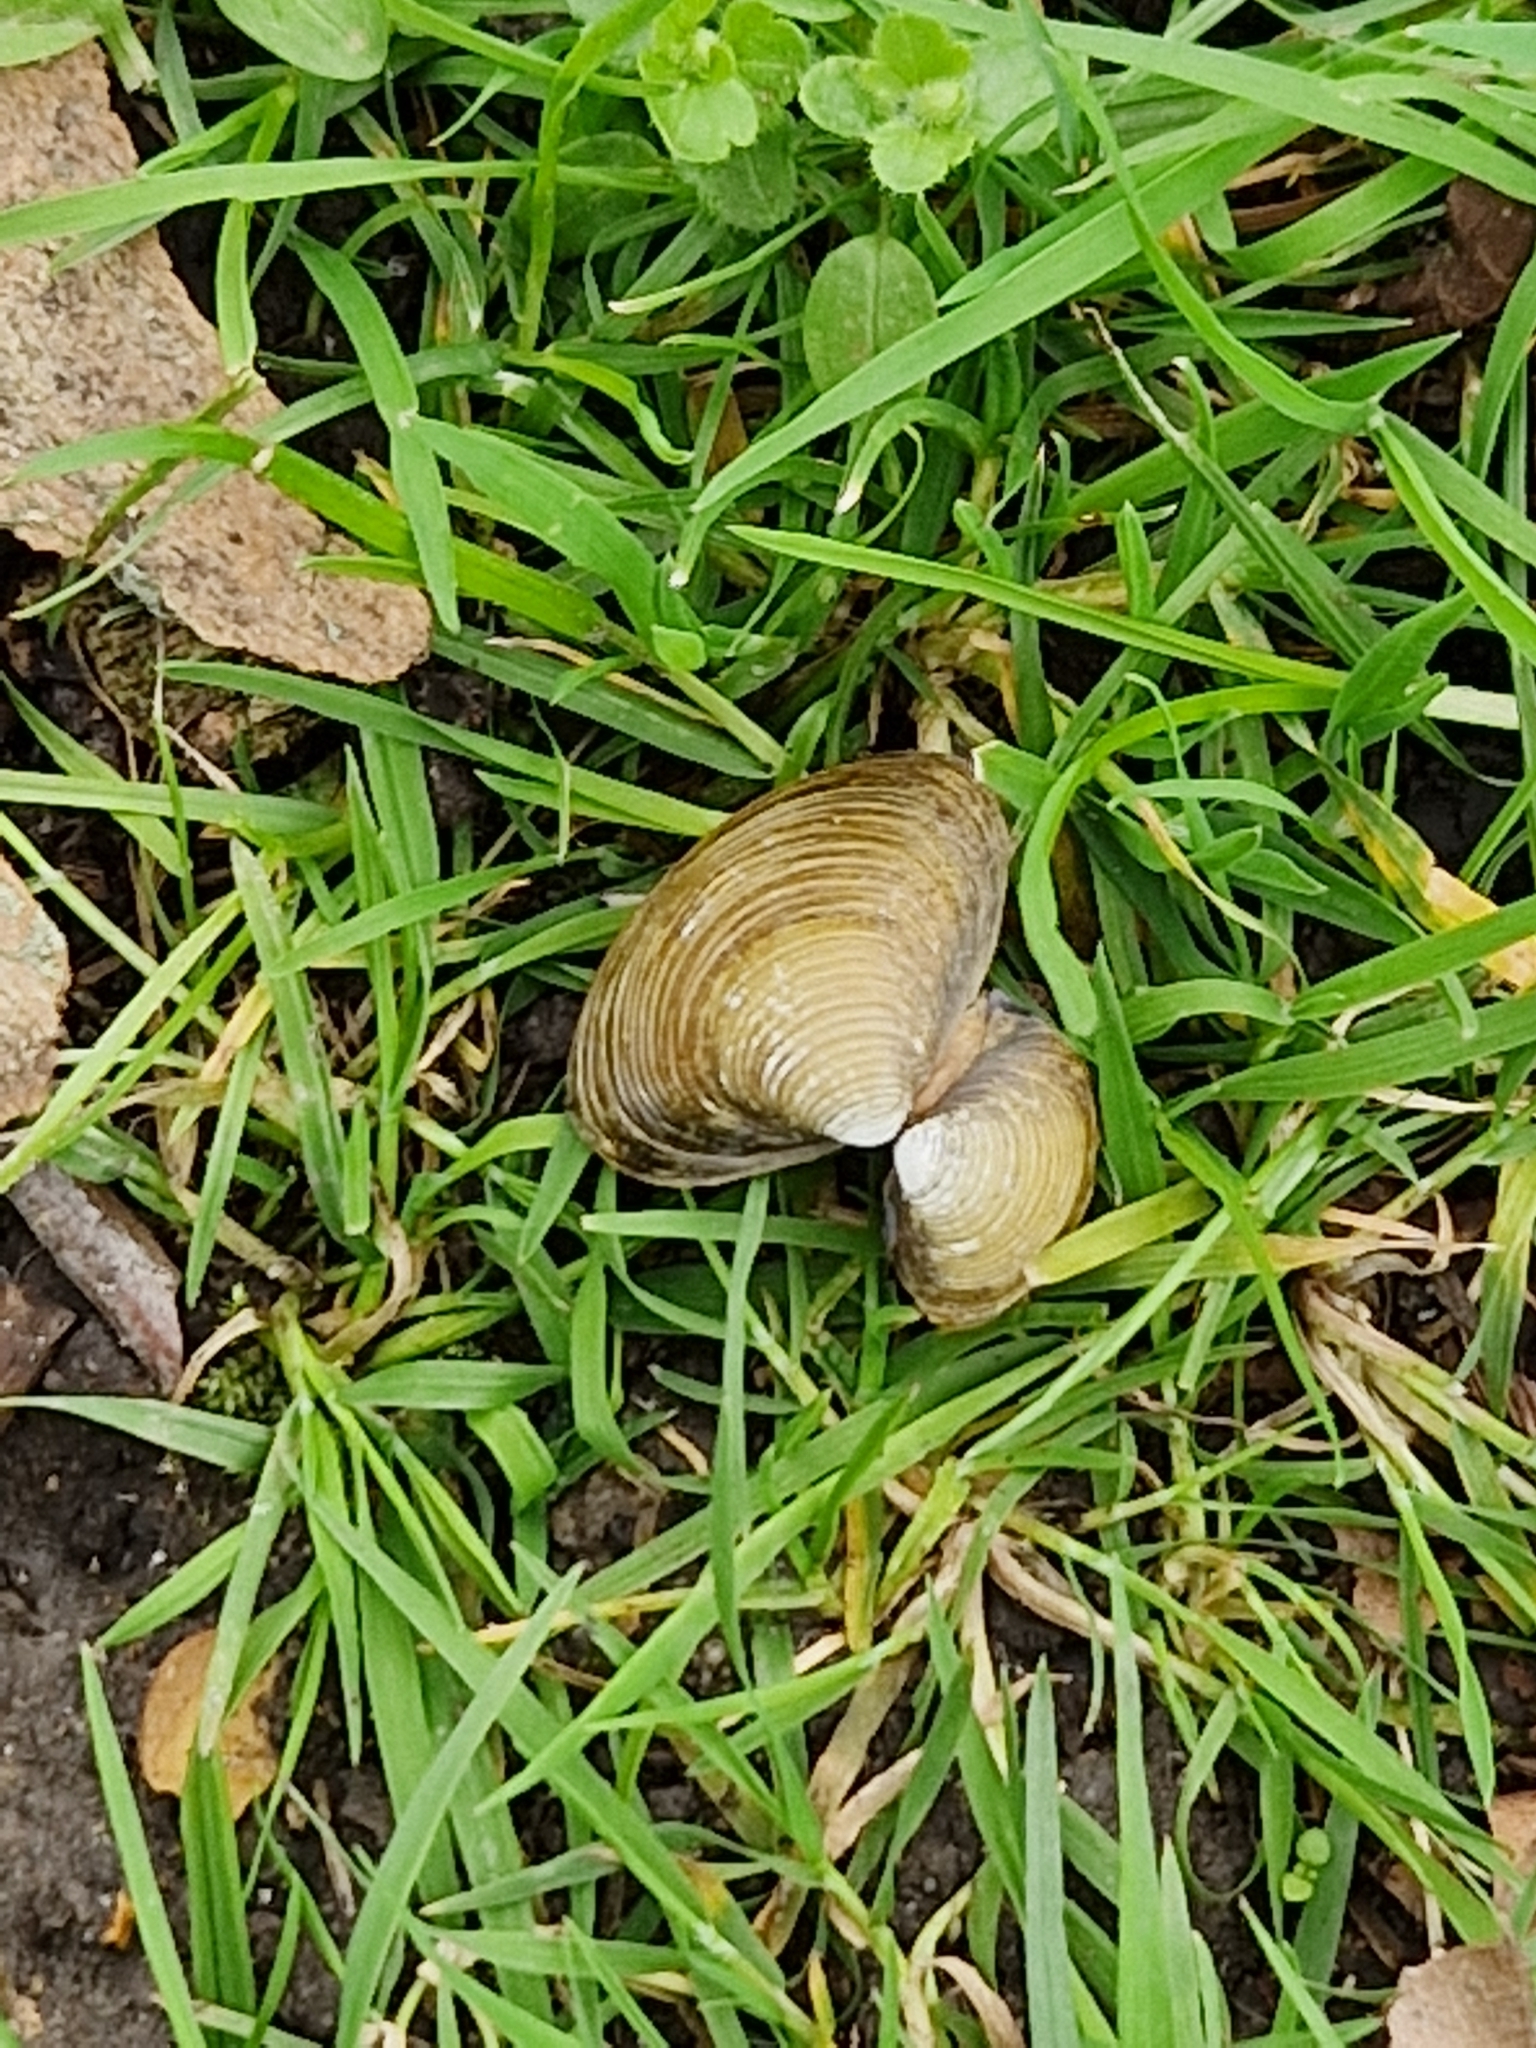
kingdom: Animalia
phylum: Mollusca
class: Bivalvia
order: Venerida
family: Cyrenidae
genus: Corbicula
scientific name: Corbicula fluminea
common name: Asian clam
